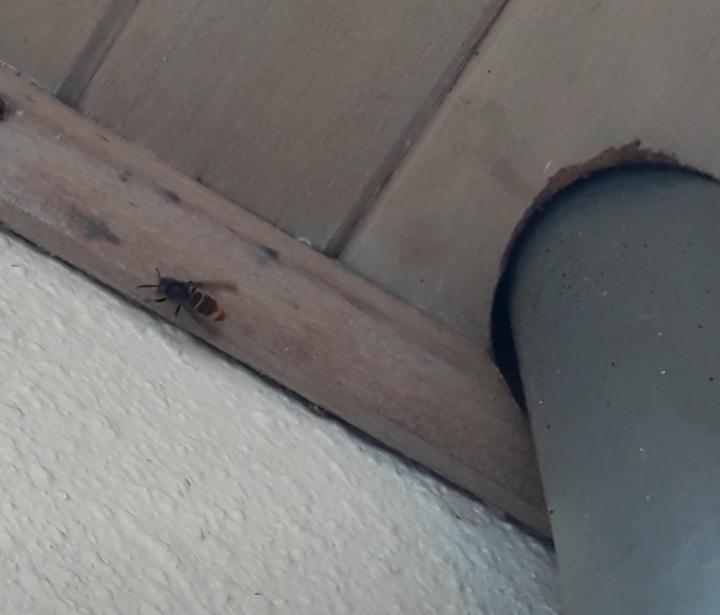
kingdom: Animalia
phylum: Arthropoda
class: Insecta
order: Hymenoptera
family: Vespidae
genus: Vespa
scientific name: Vespa velutina
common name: Asian hornet
